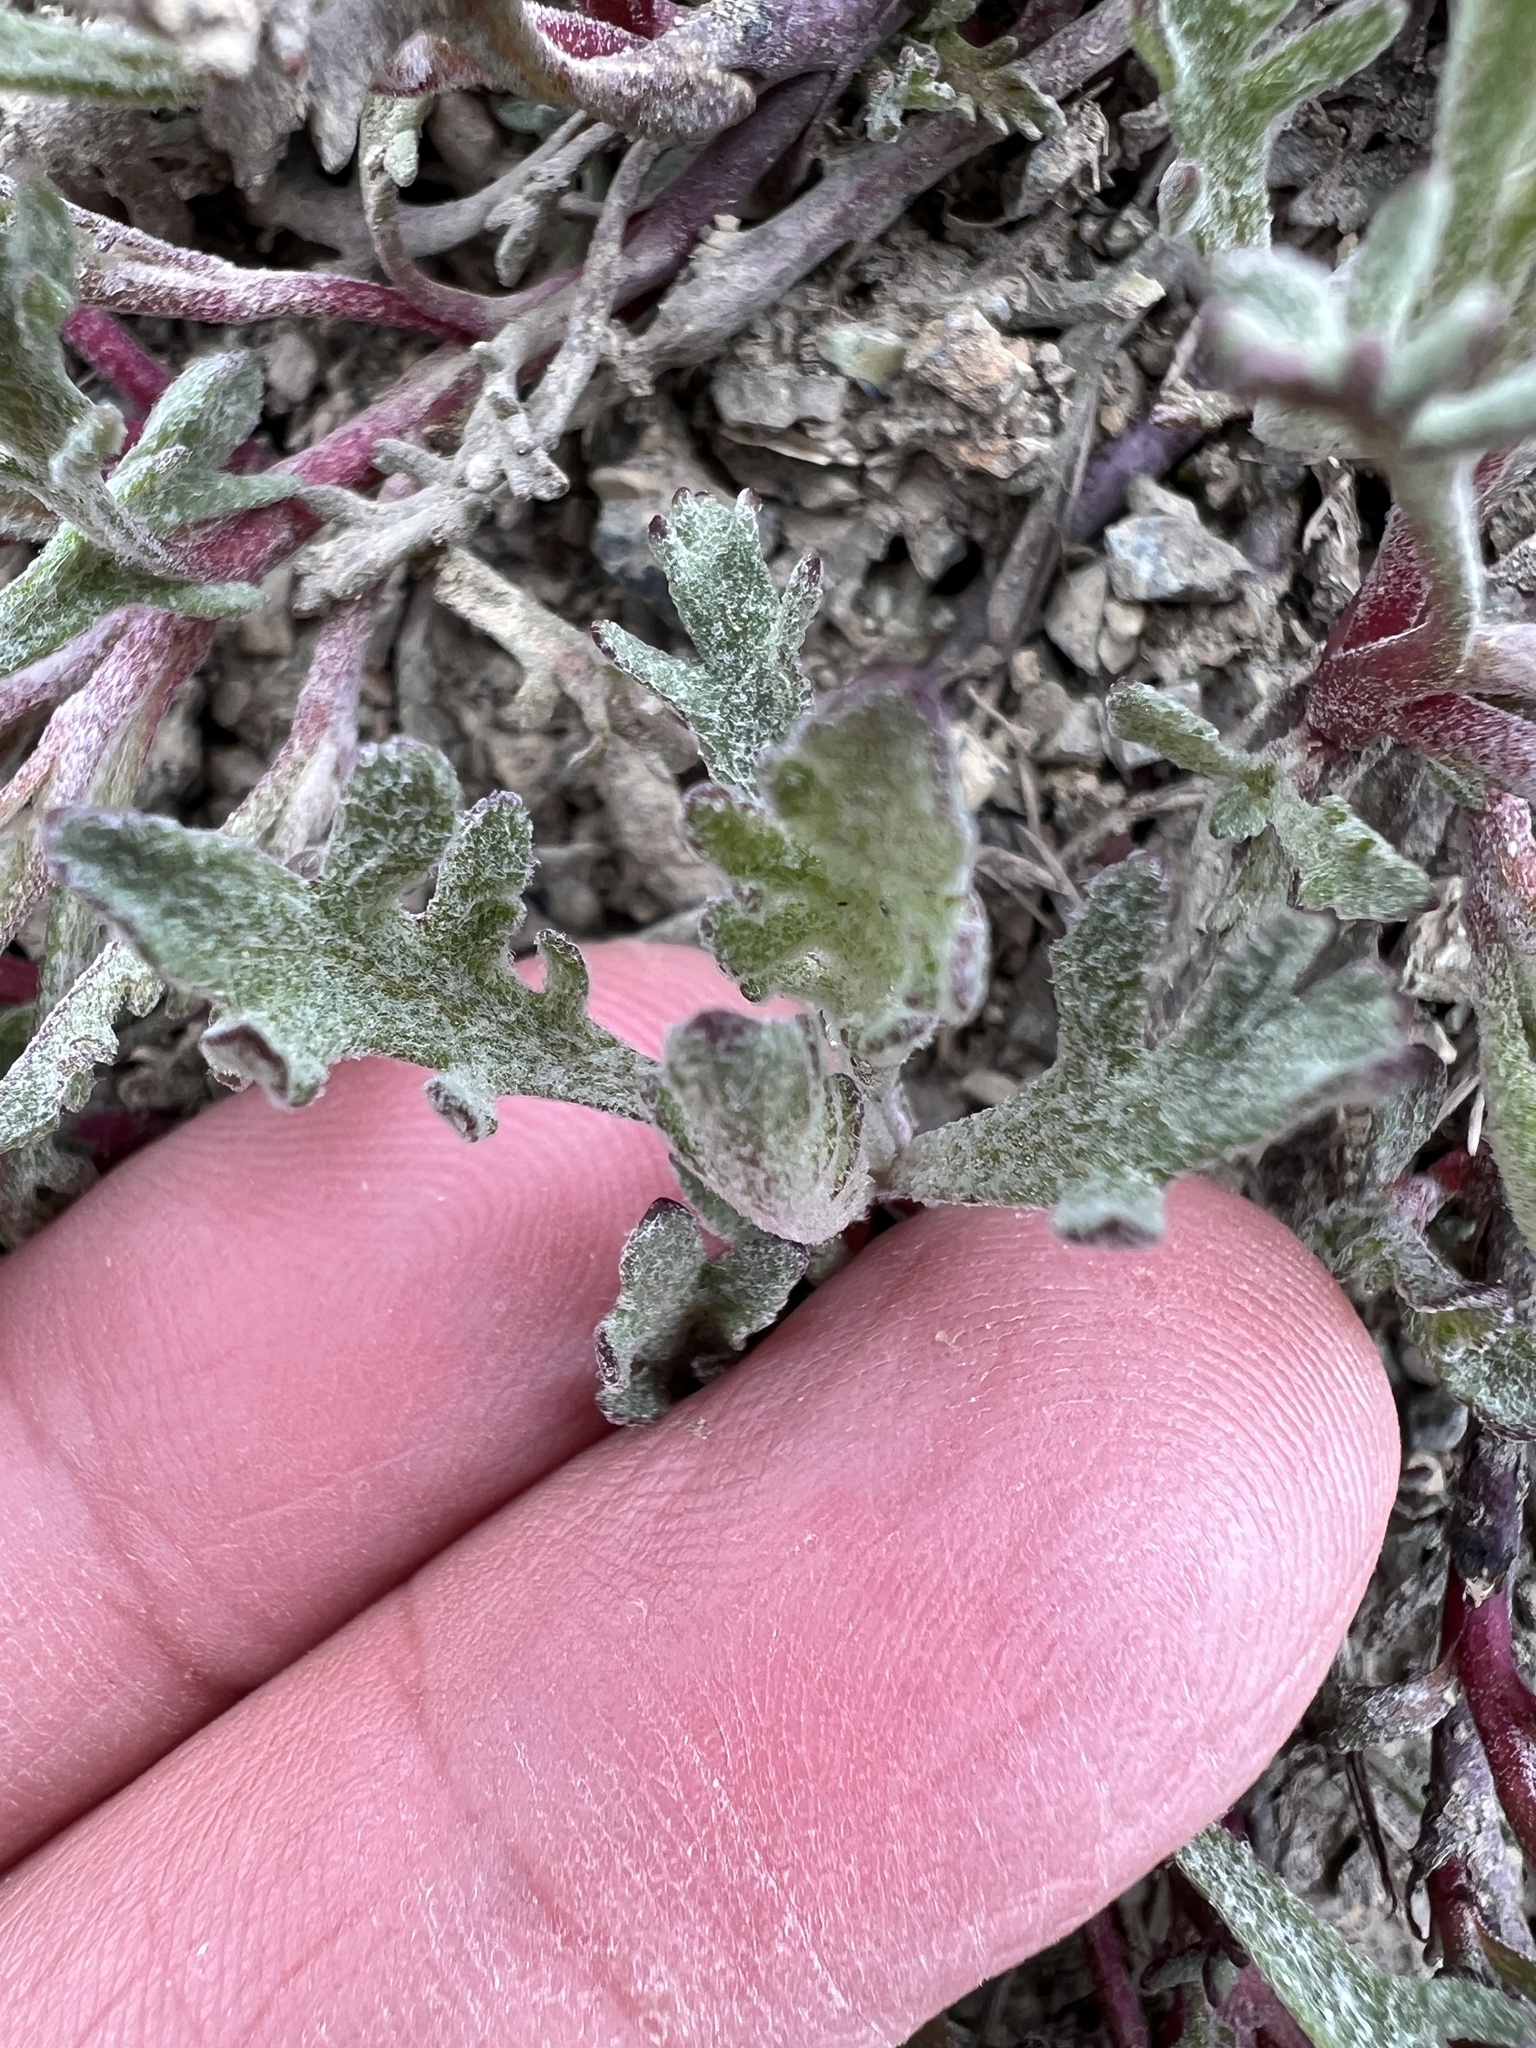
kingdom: Plantae
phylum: Tracheophyta
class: Magnoliopsida
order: Asterales
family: Asteraceae
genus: Chaenactis
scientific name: Chaenactis thompsonii
